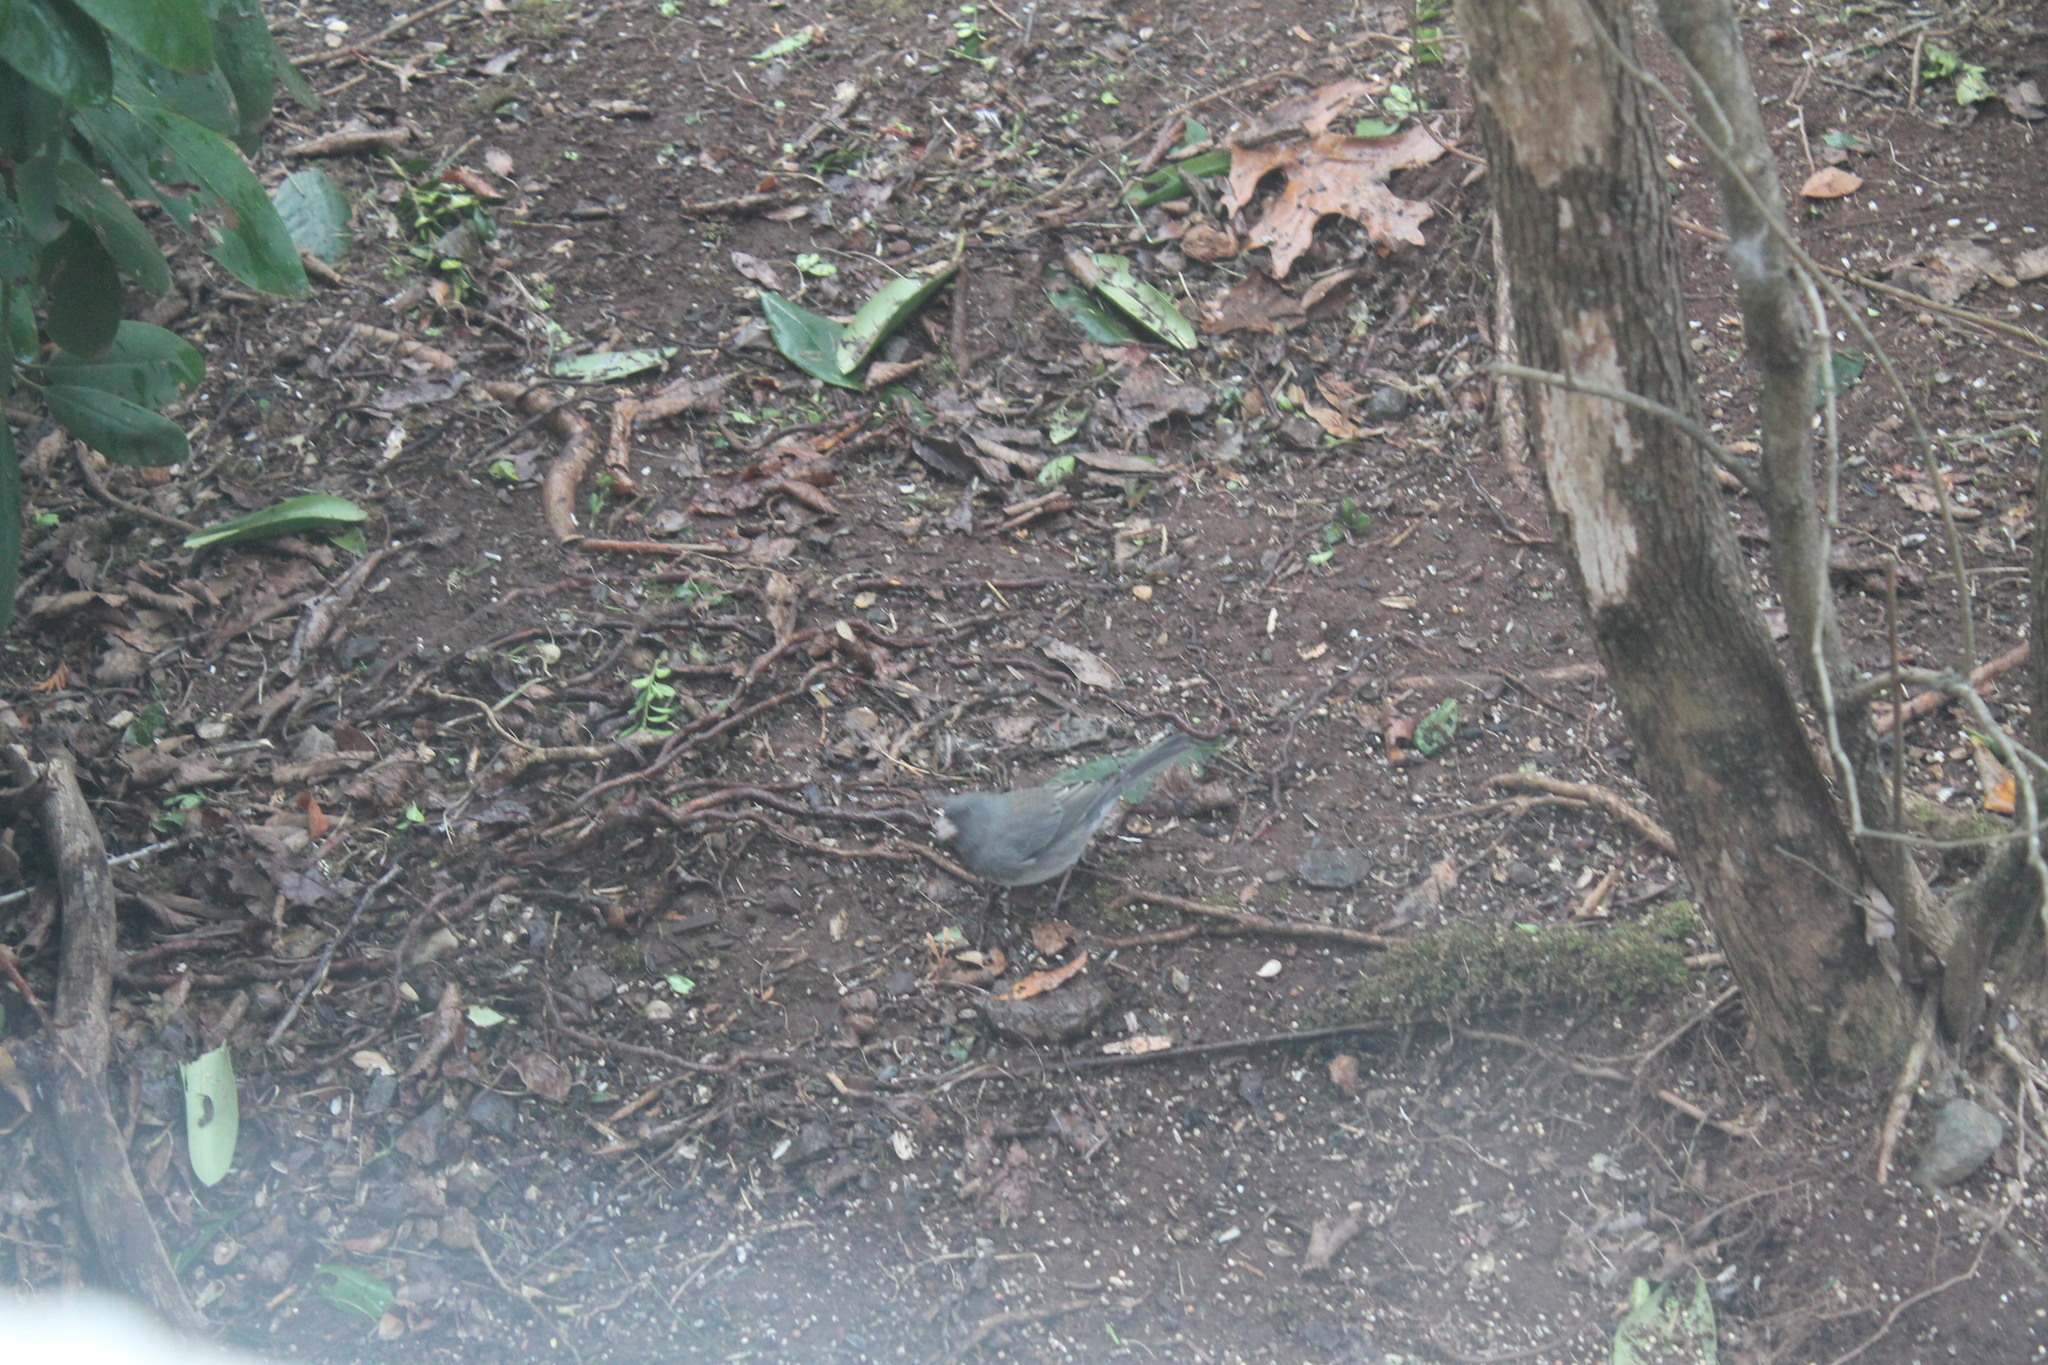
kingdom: Animalia
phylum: Chordata
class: Aves
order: Passeriformes
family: Passerellidae
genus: Junco
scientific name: Junco hyemalis
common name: Dark-eyed junco
